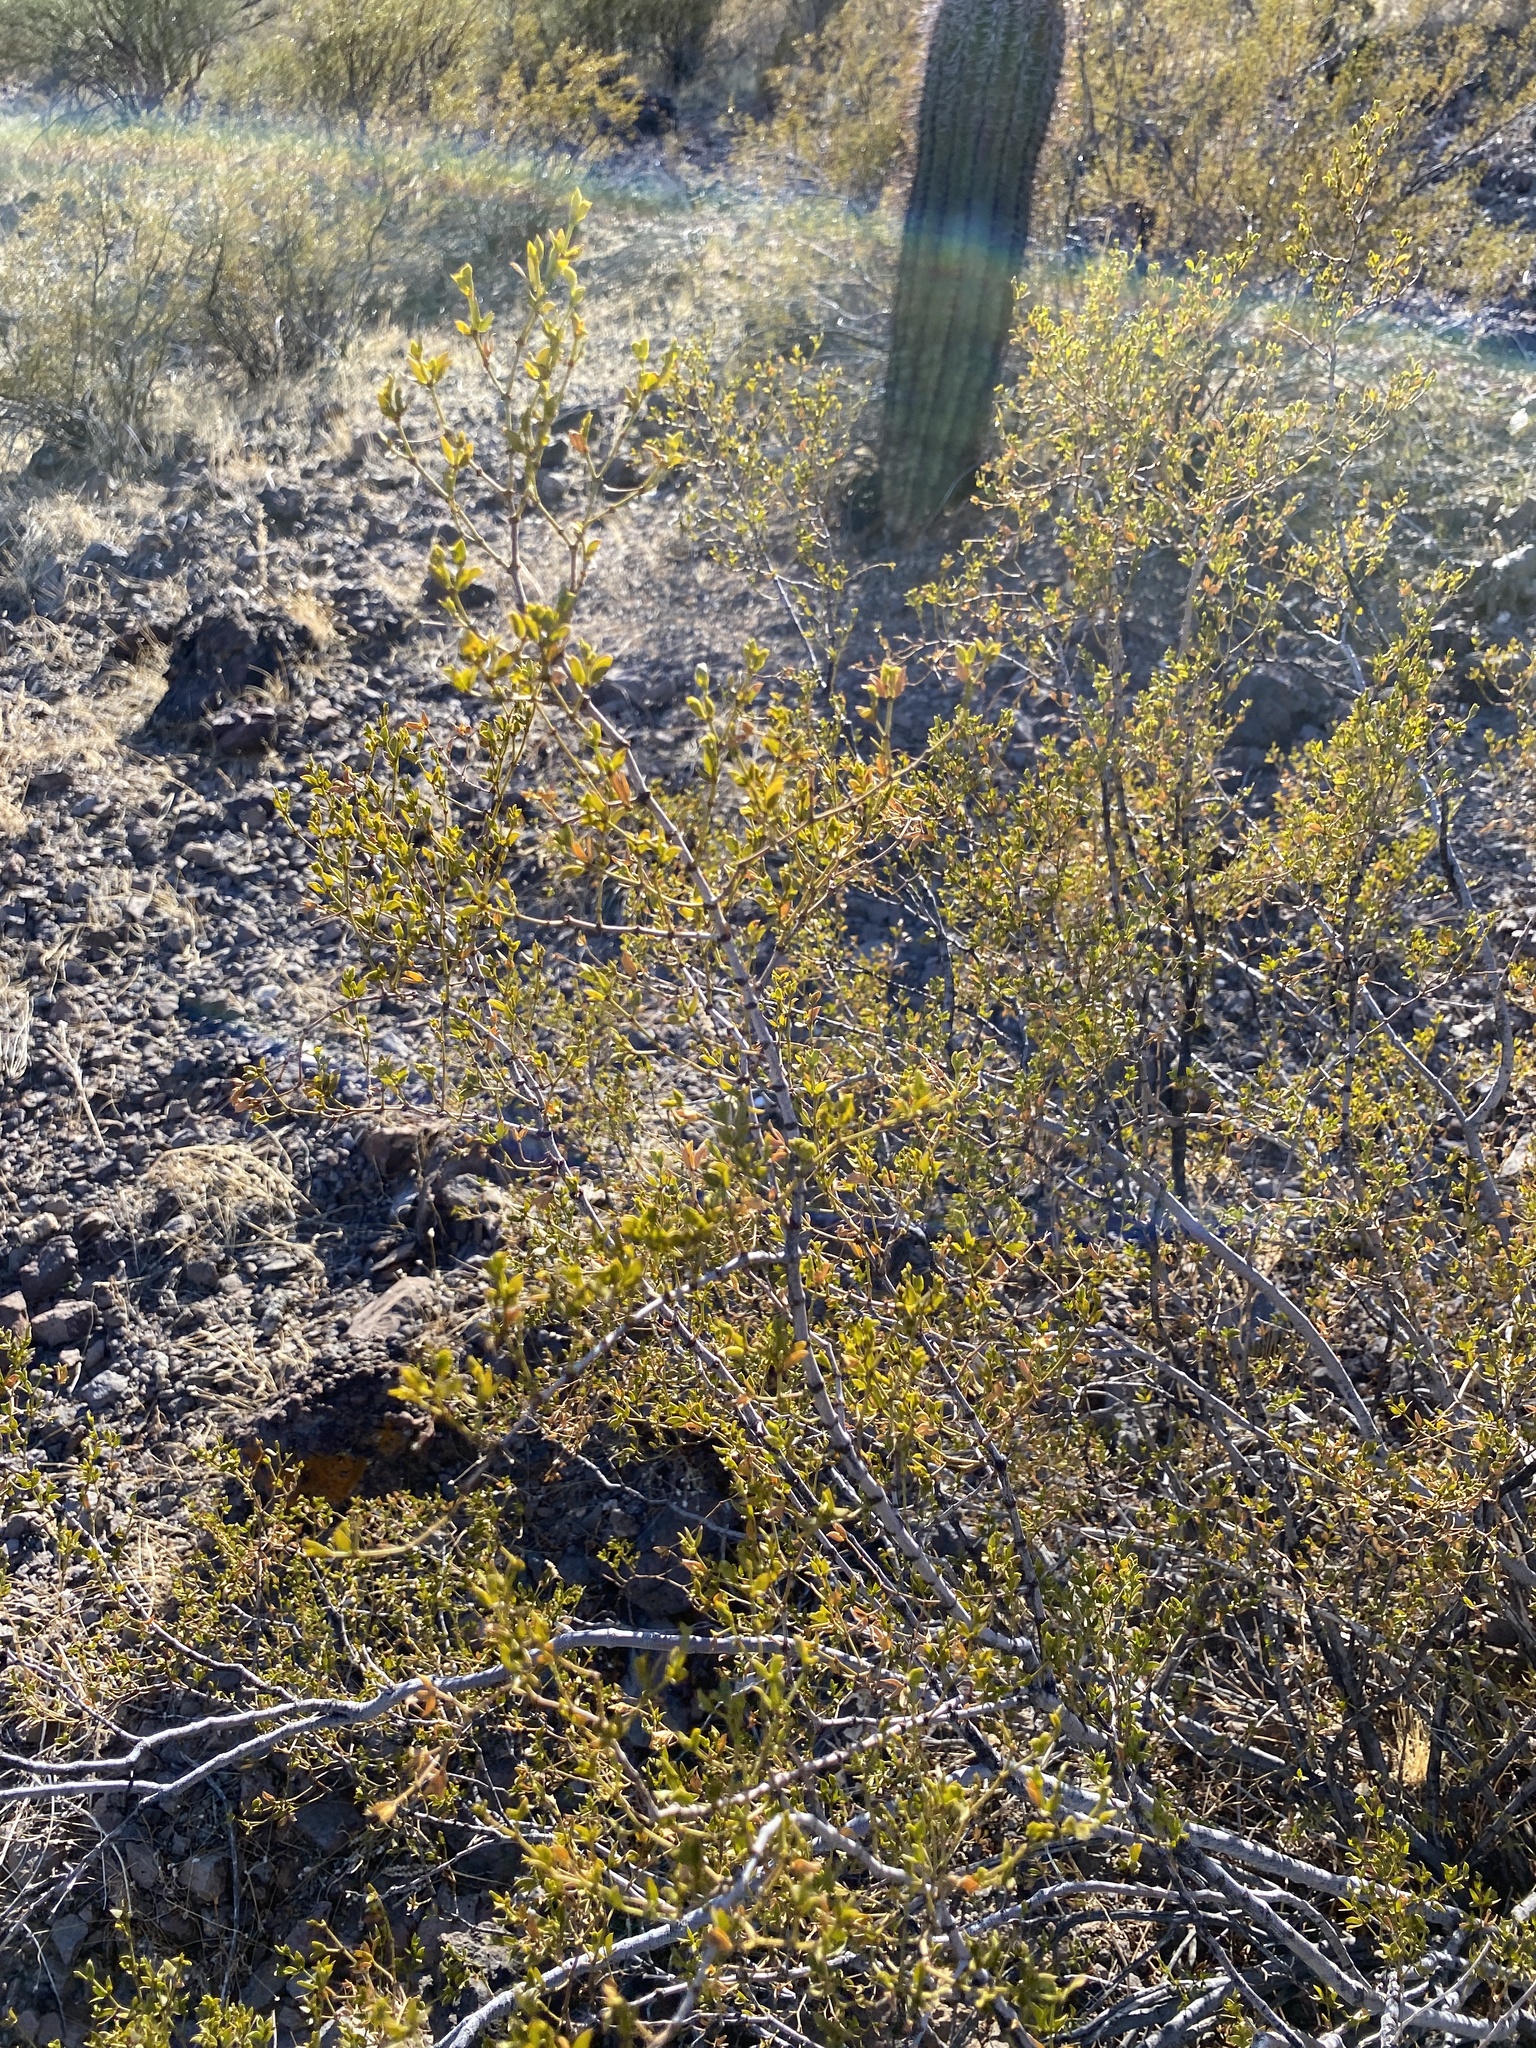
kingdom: Plantae
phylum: Tracheophyta
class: Magnoliopsida
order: Zygophyllales
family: Zygophyllaceae
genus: Larrea
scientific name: Larrea tridentata
